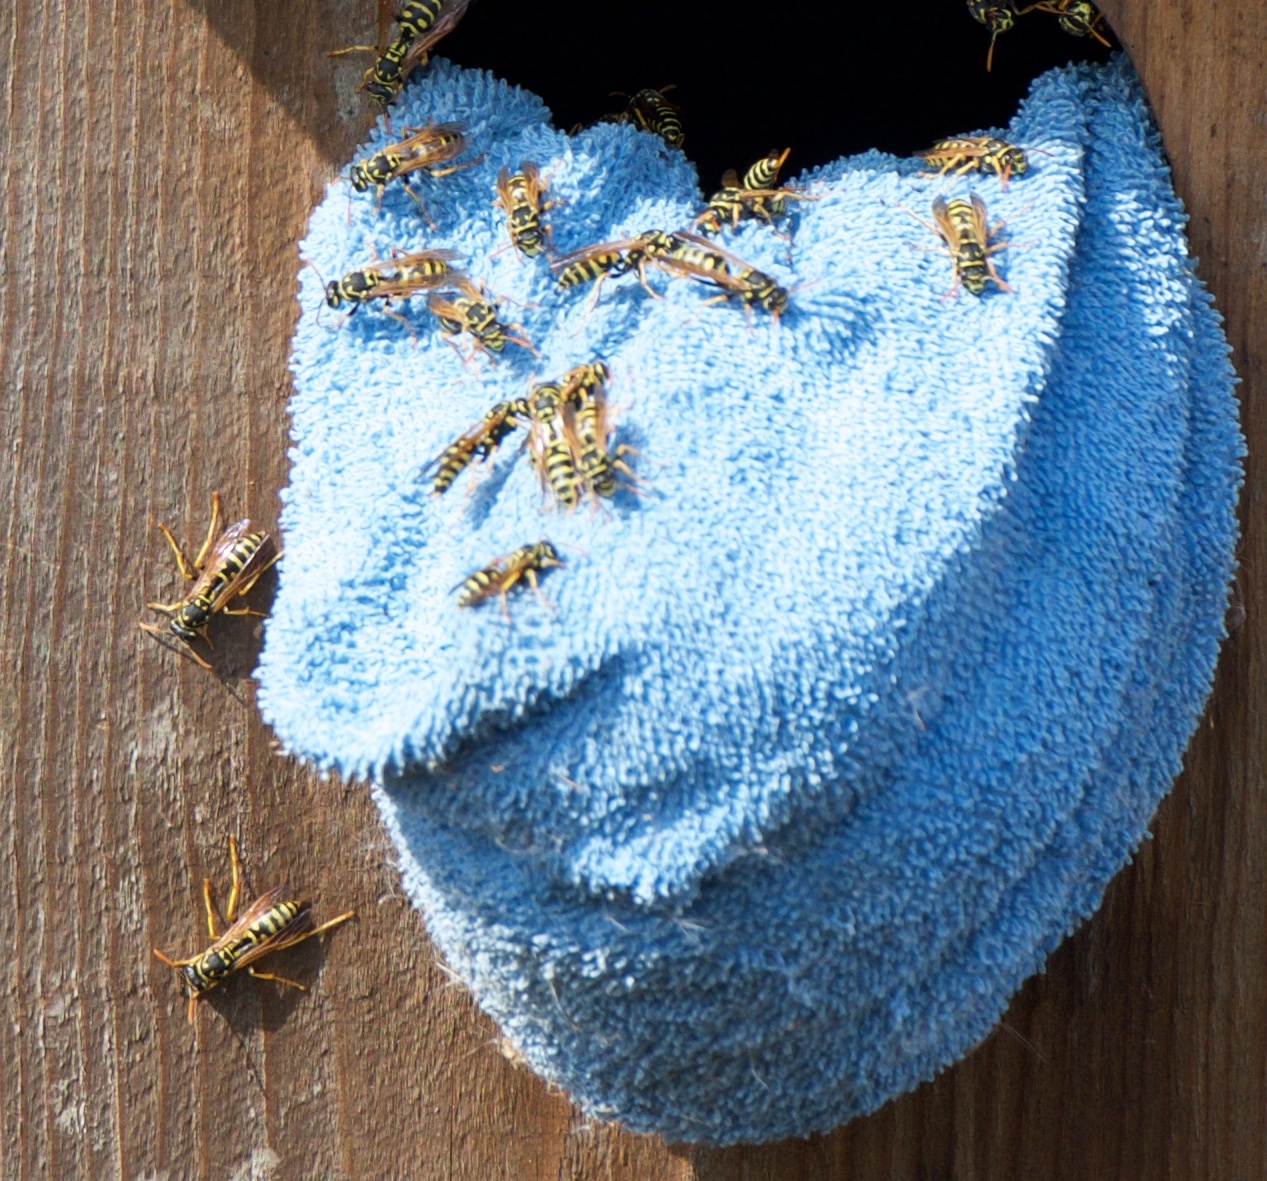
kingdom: Animalia
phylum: Arthropoda
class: Insecta
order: Hymenoptera
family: Eumenidae
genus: Polistes
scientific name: Polistes dominula
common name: Paper wasp
